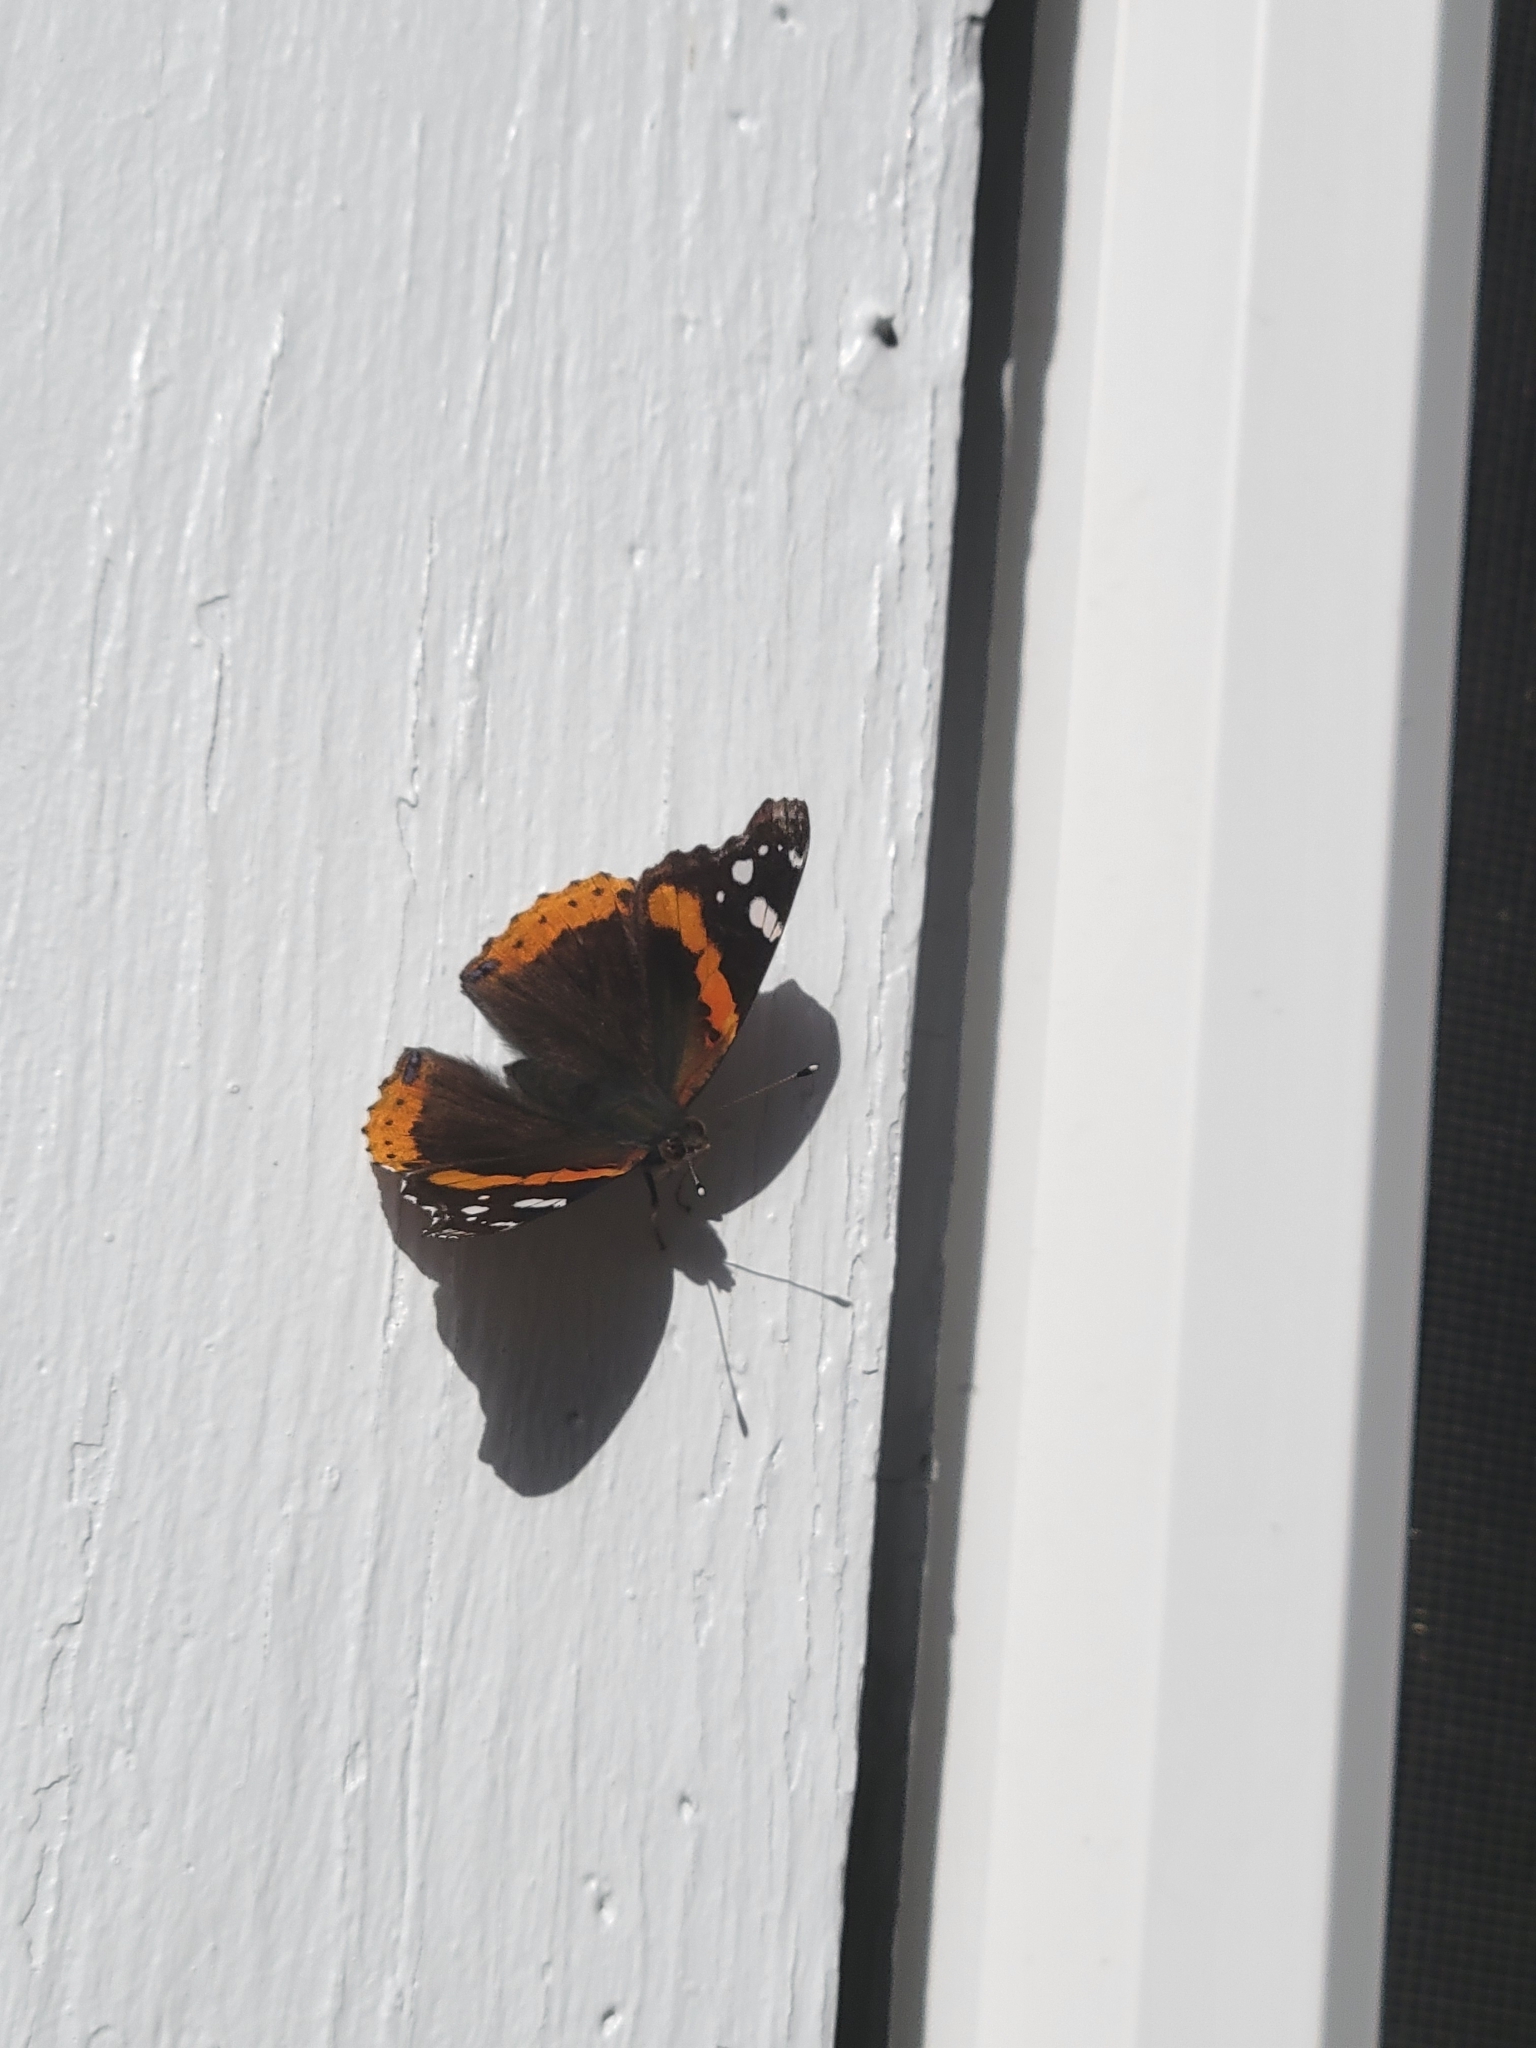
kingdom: Animalia
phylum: Arthropoda
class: Insecta
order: Lepidoptera
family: Nymphalidae
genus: Vanessa
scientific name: Vanessa atalanta
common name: Red admiral
